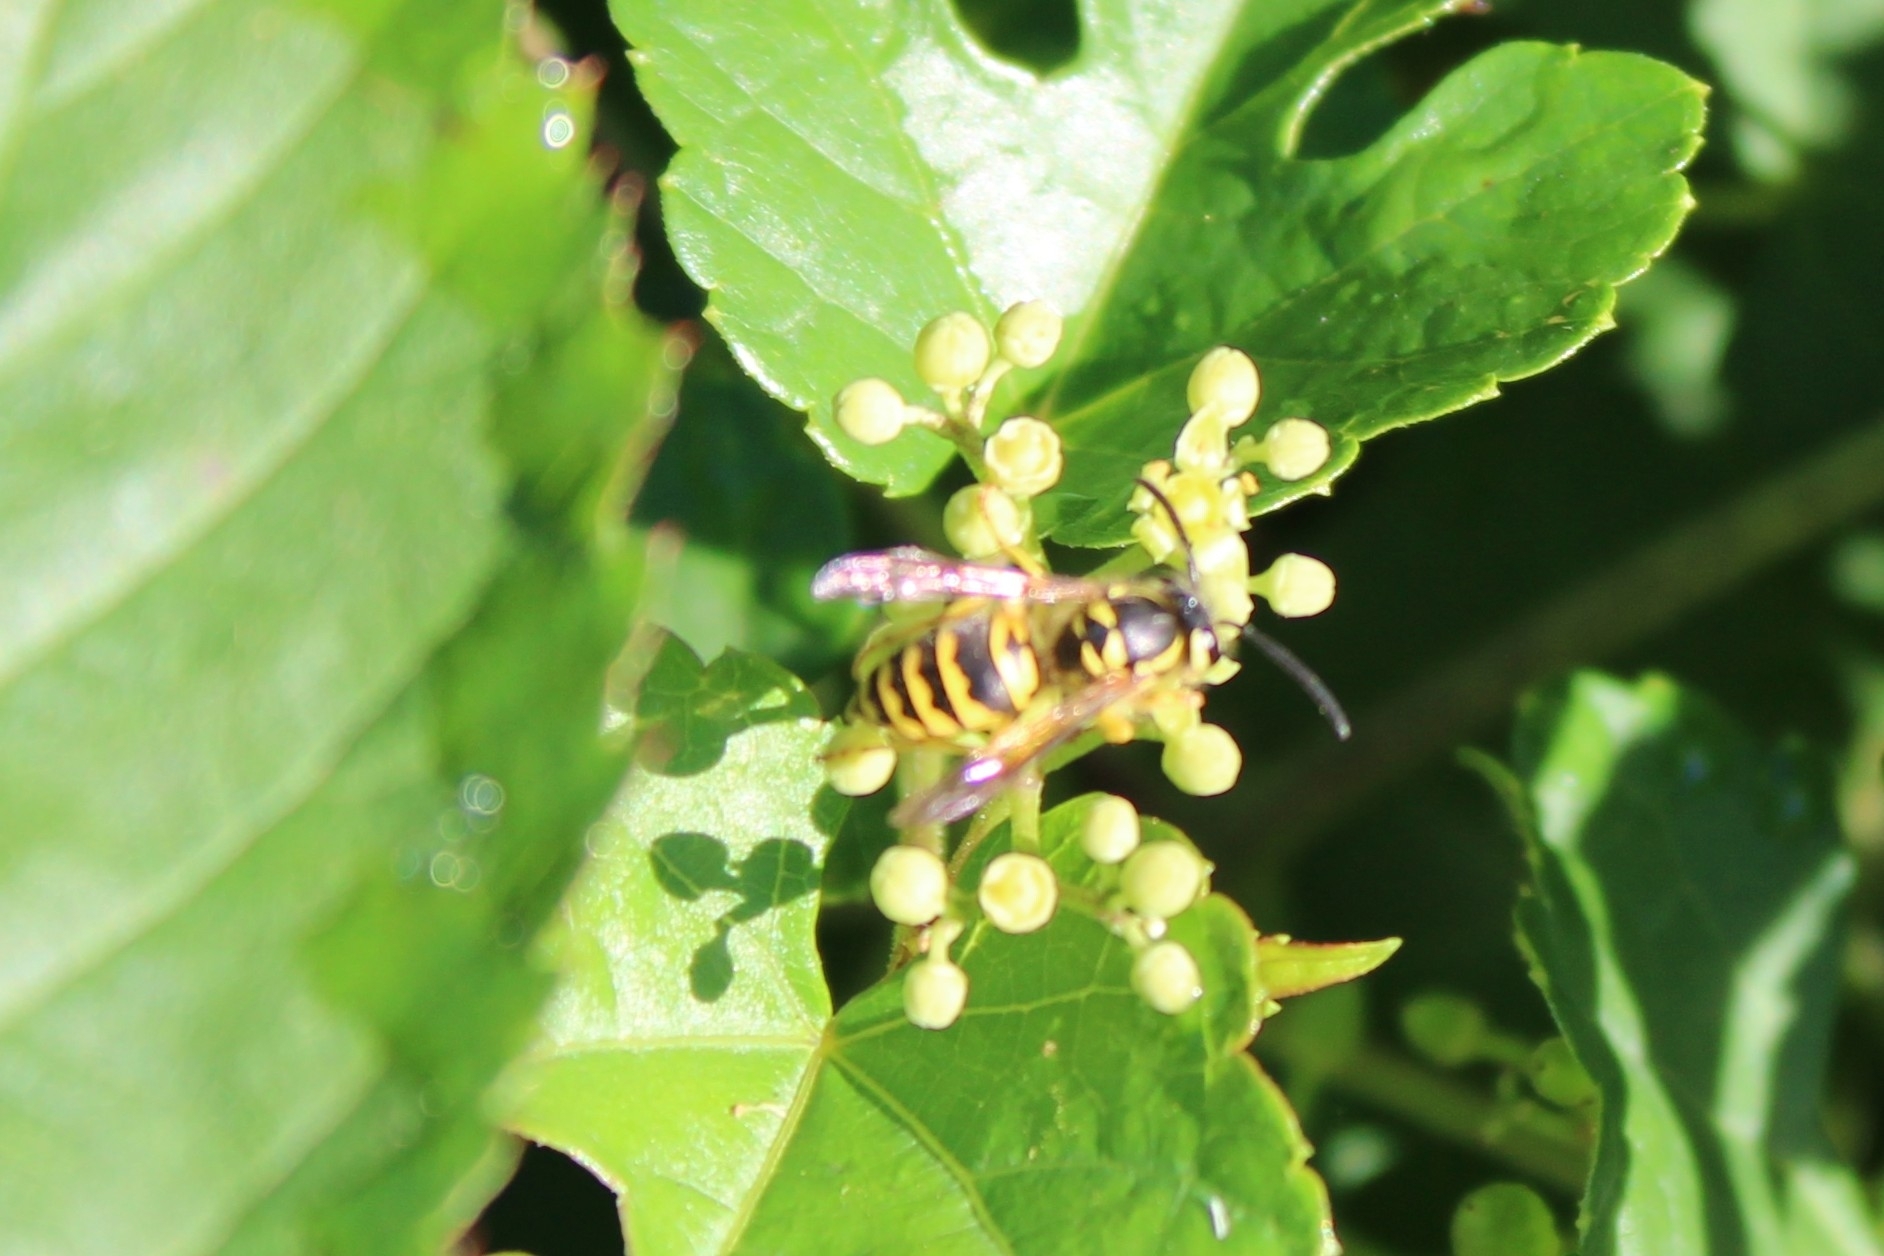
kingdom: Animalia
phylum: Arthropoda
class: Insecta
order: Hymenoptera
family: Vespidae
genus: Vespula
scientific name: Vespula maculifrons
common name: Eastern yellowjacket
